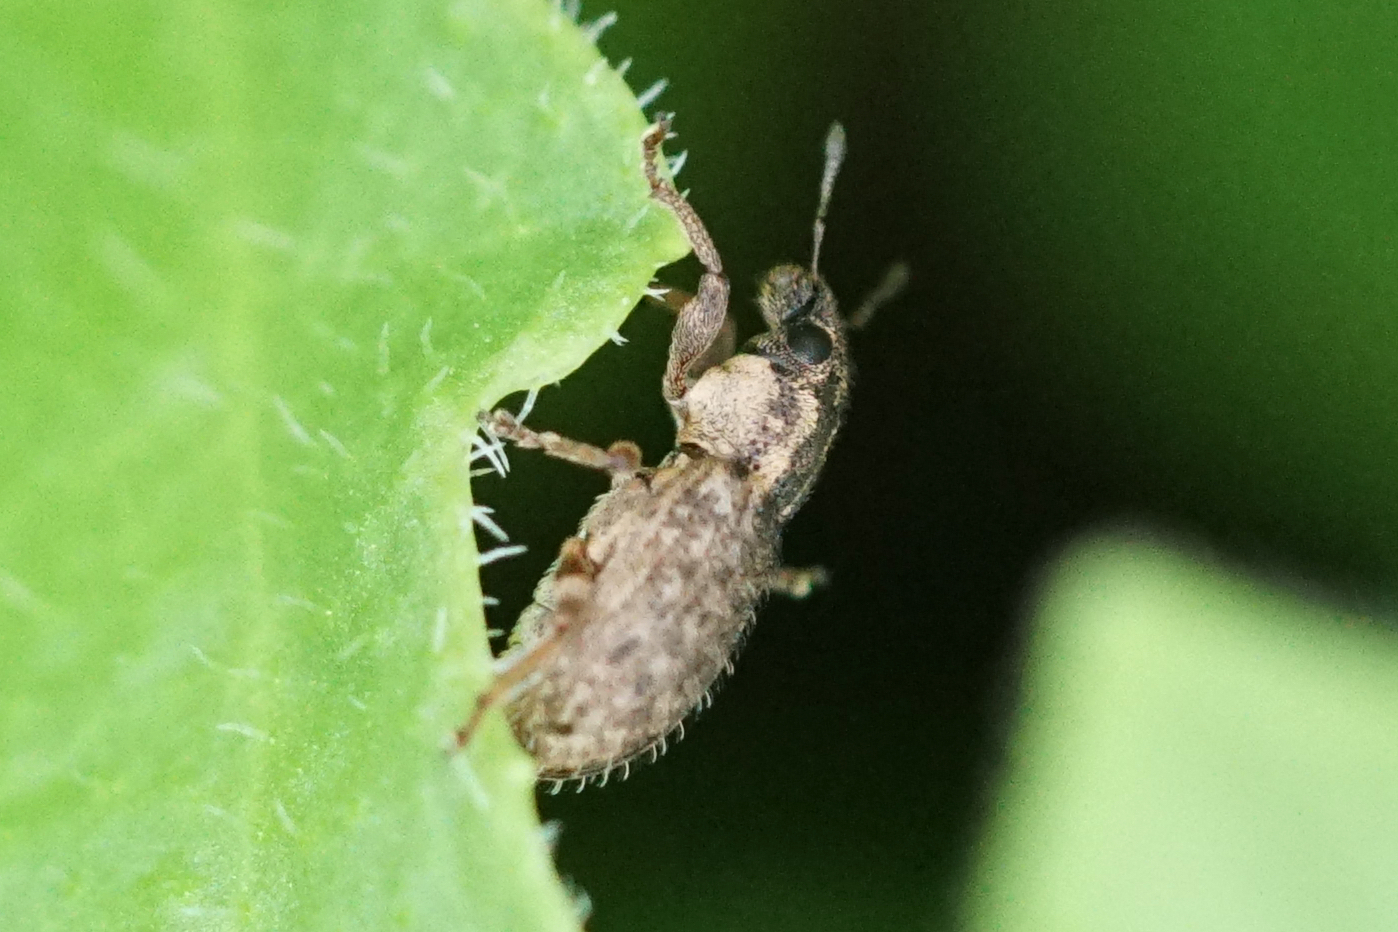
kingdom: Animalia
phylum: Arthropoda
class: Insecta
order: Coleoptera
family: Curculionidae
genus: Sitona
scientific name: Sitona hispidulus
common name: Clover weevil
